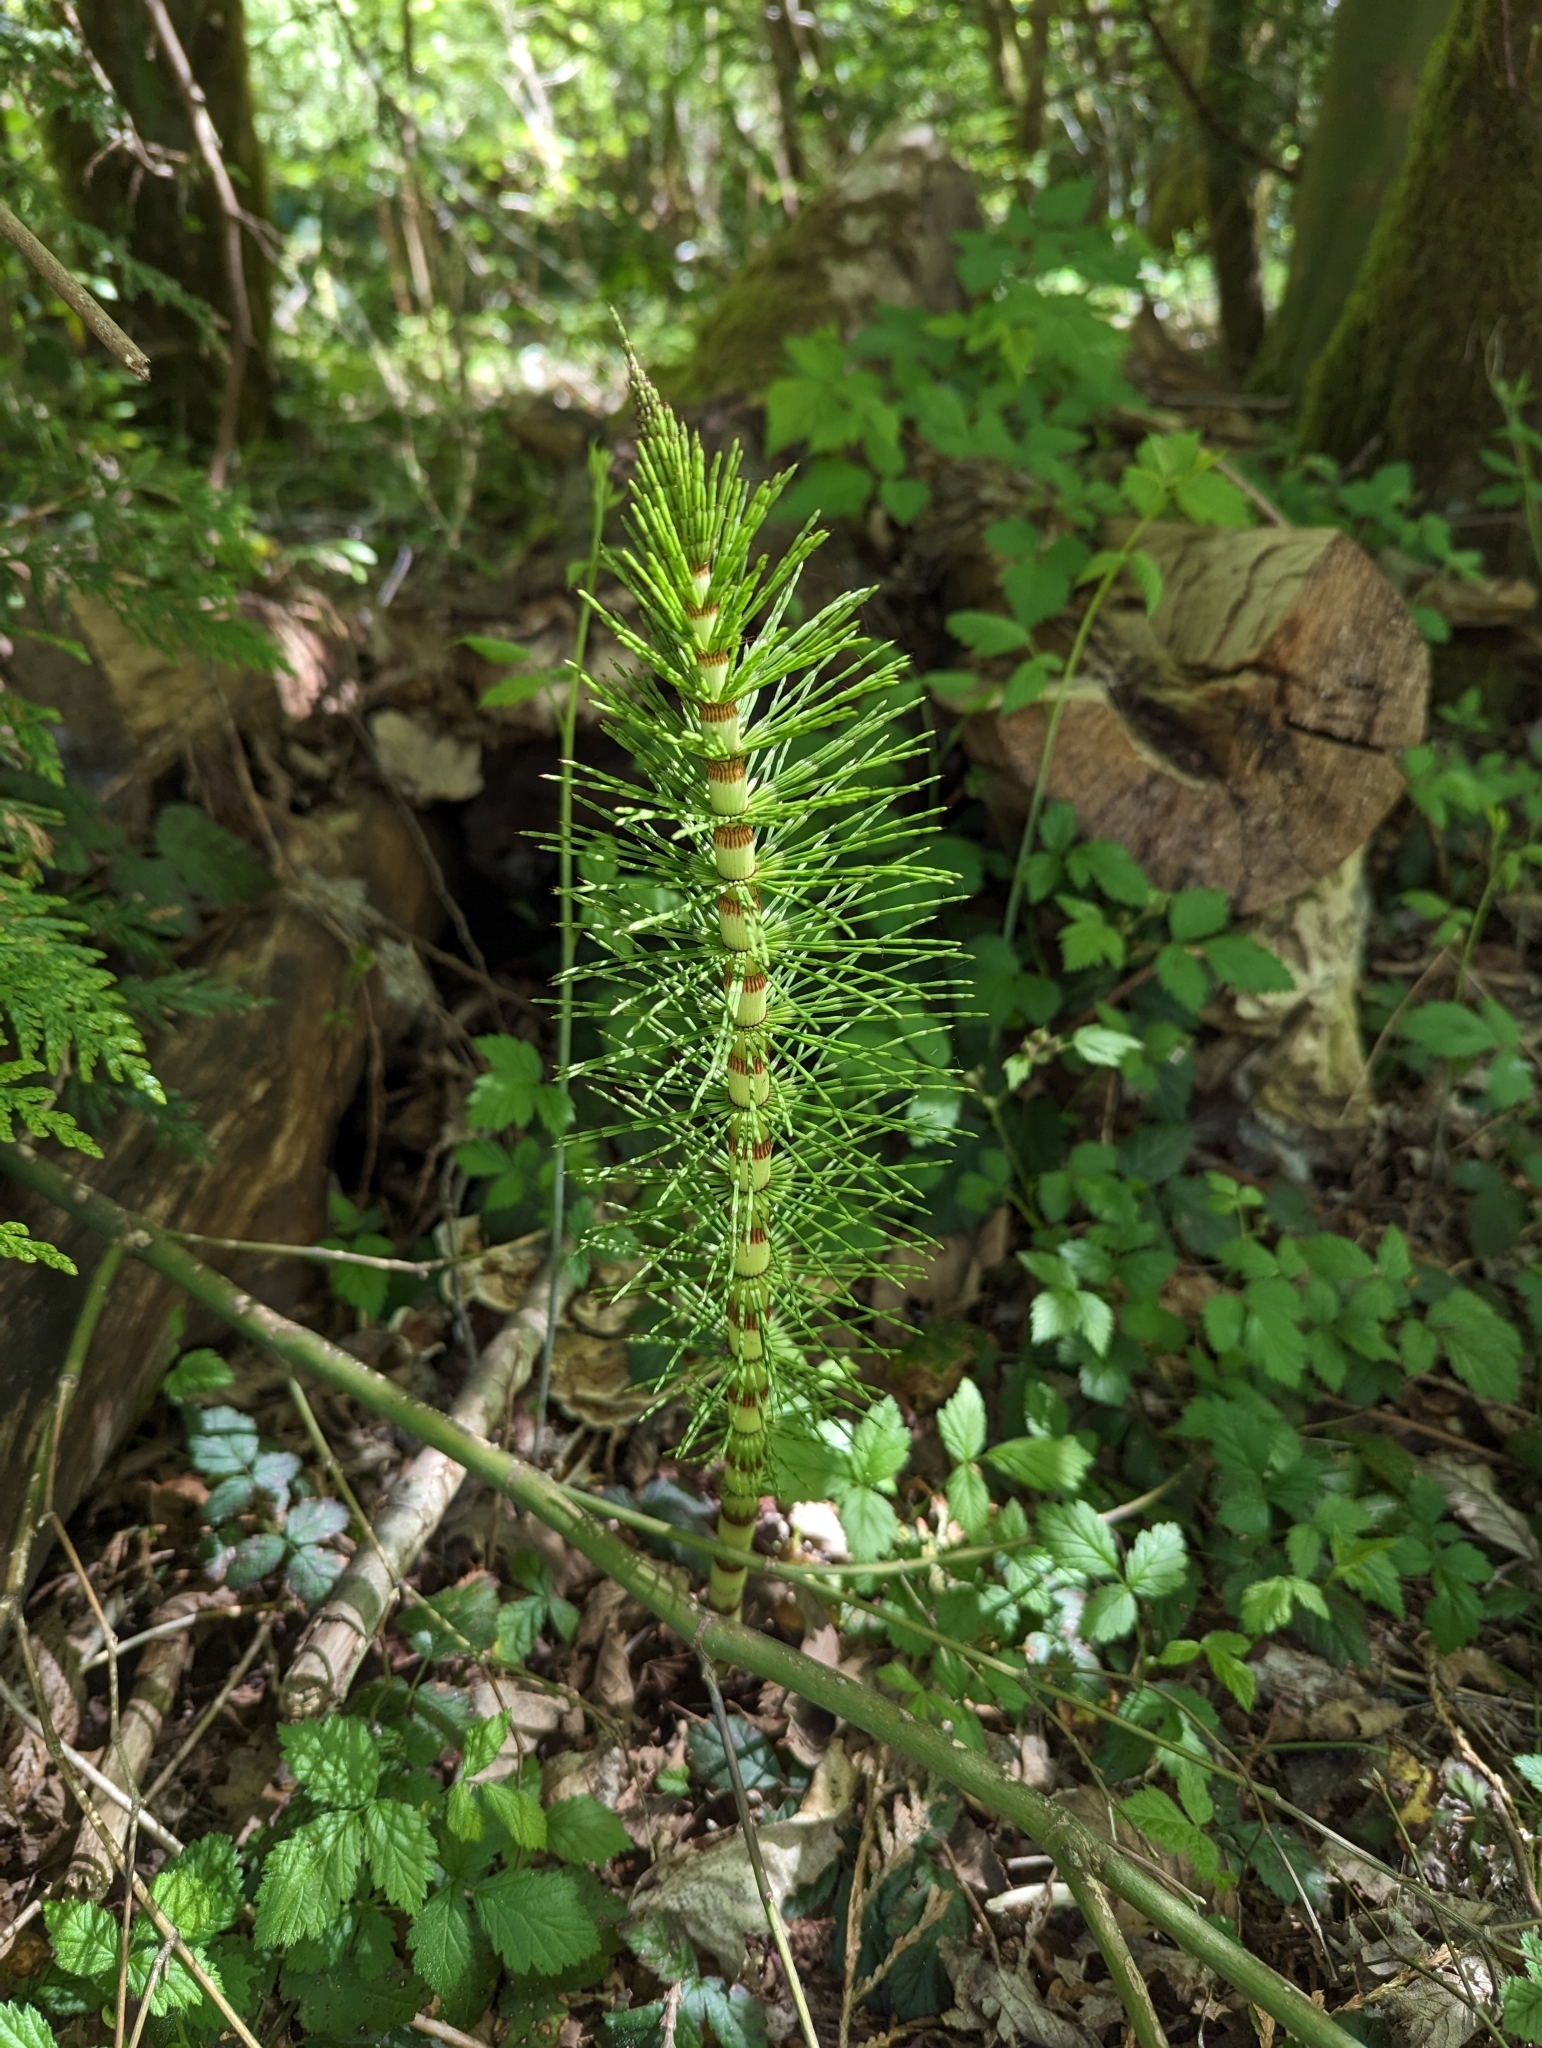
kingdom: Plantae
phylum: Tracheophyta
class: Polypodiopsida
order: Equisetales
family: Equisetaceae
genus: Equisetum
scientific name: Equisetum braunii
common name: Braun's horsetail
